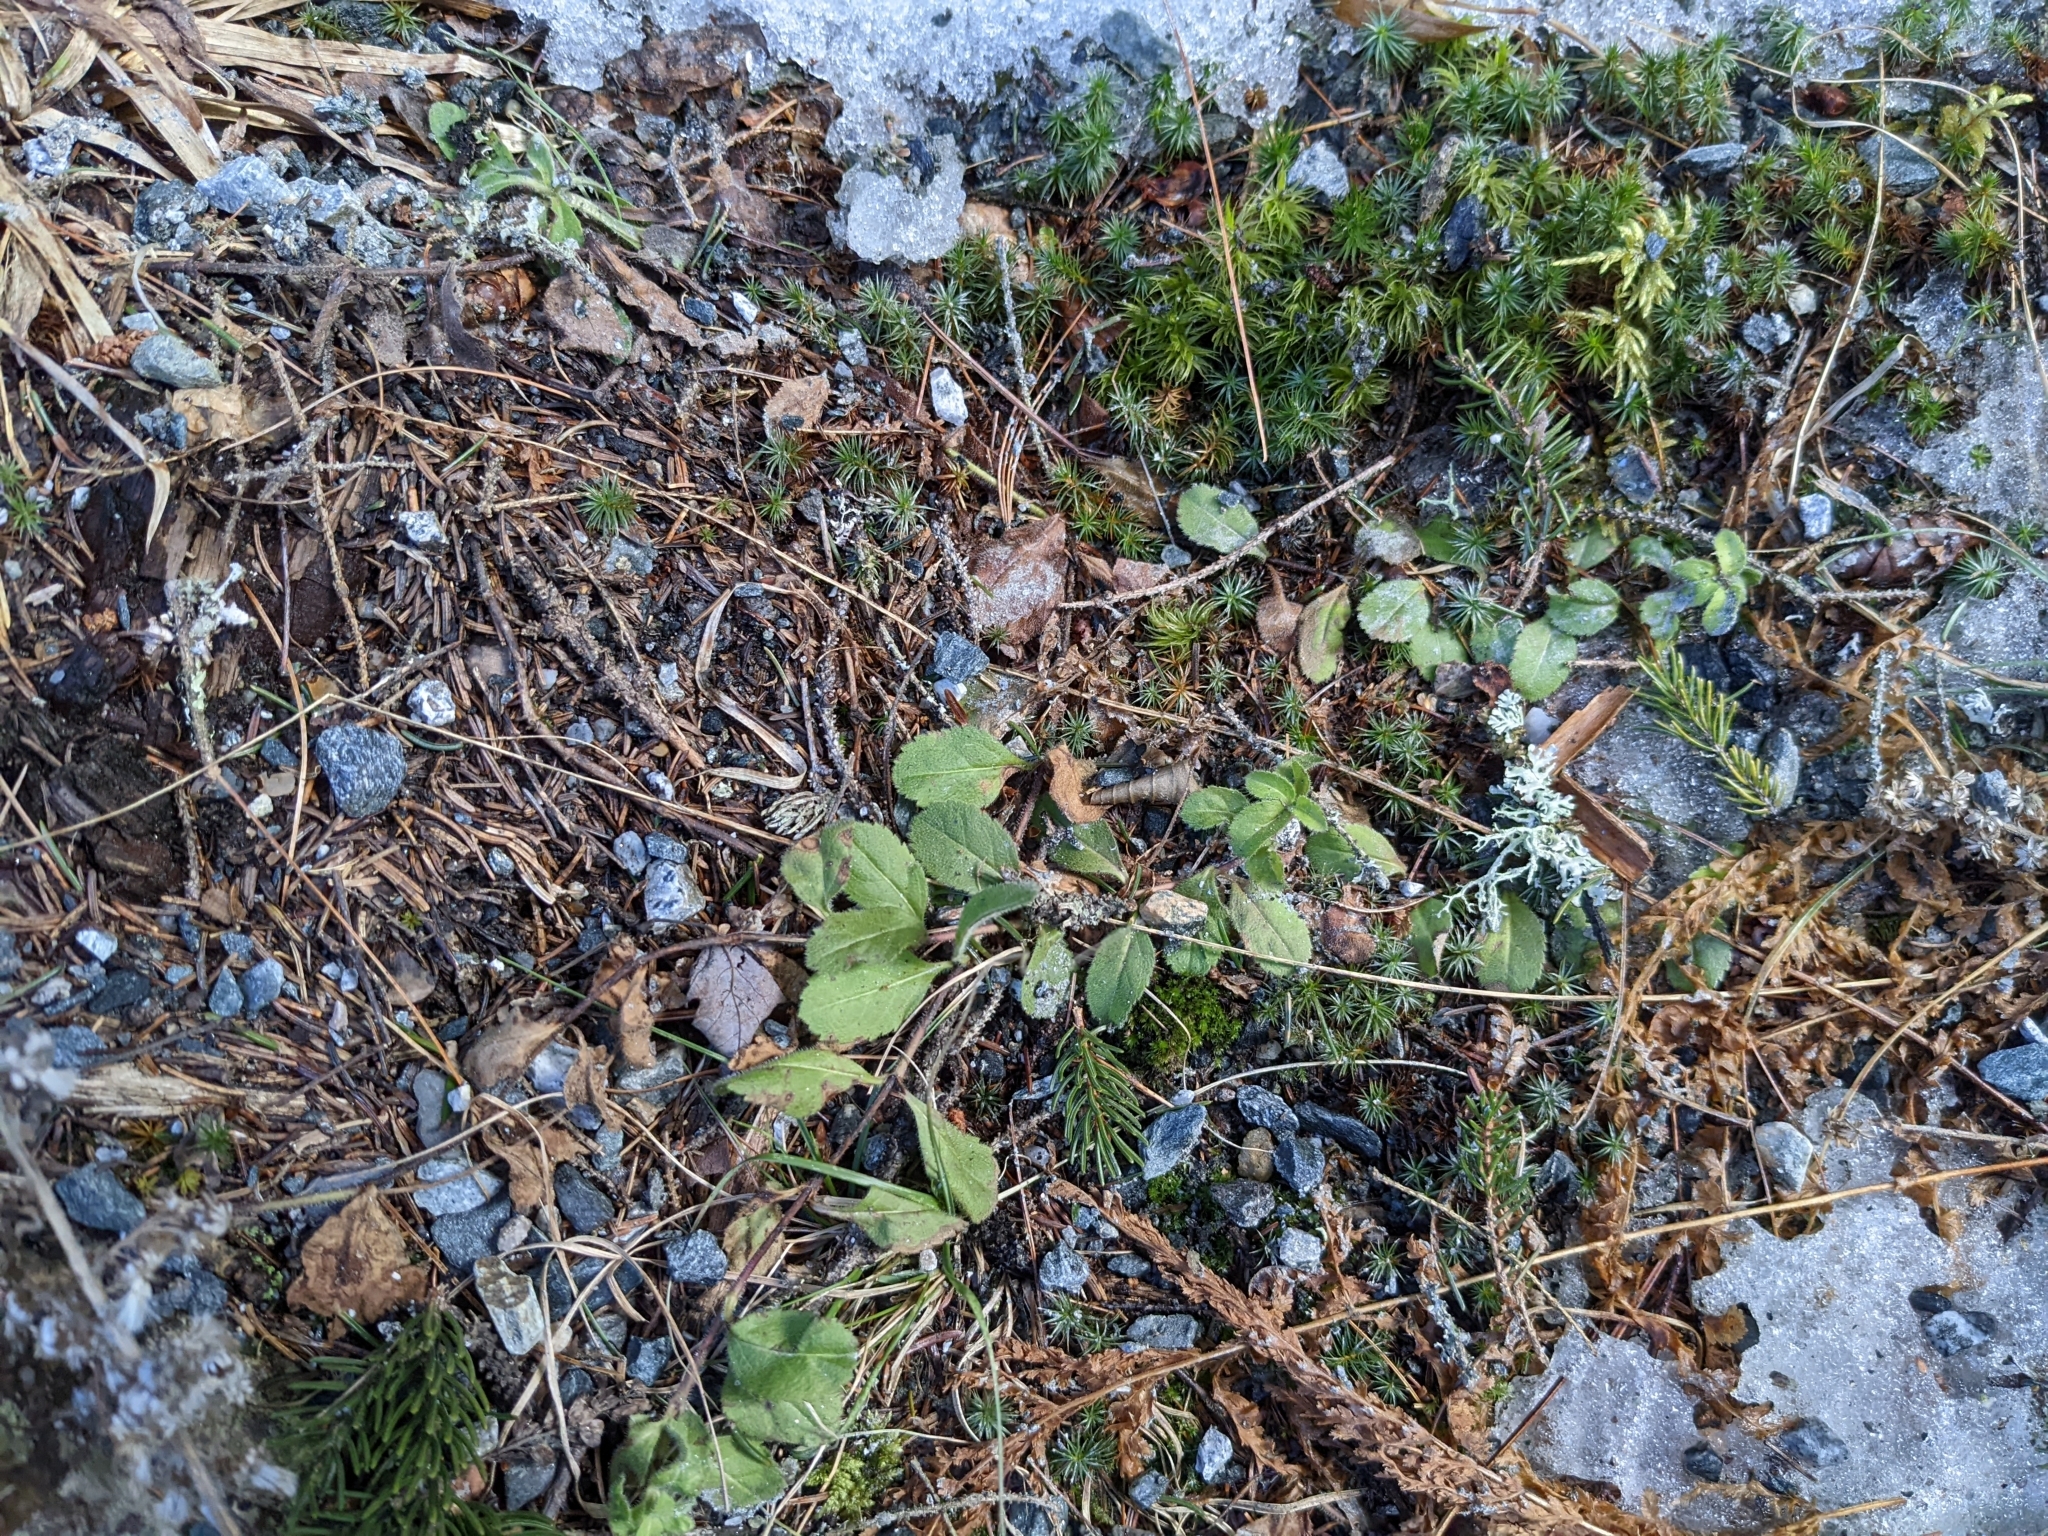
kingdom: Plantae
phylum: Tracheophyta
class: Magnoliopsida
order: Lamiales
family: Plantaginaceae
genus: Veronica
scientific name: Veronica officinalis
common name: Common speedwell
